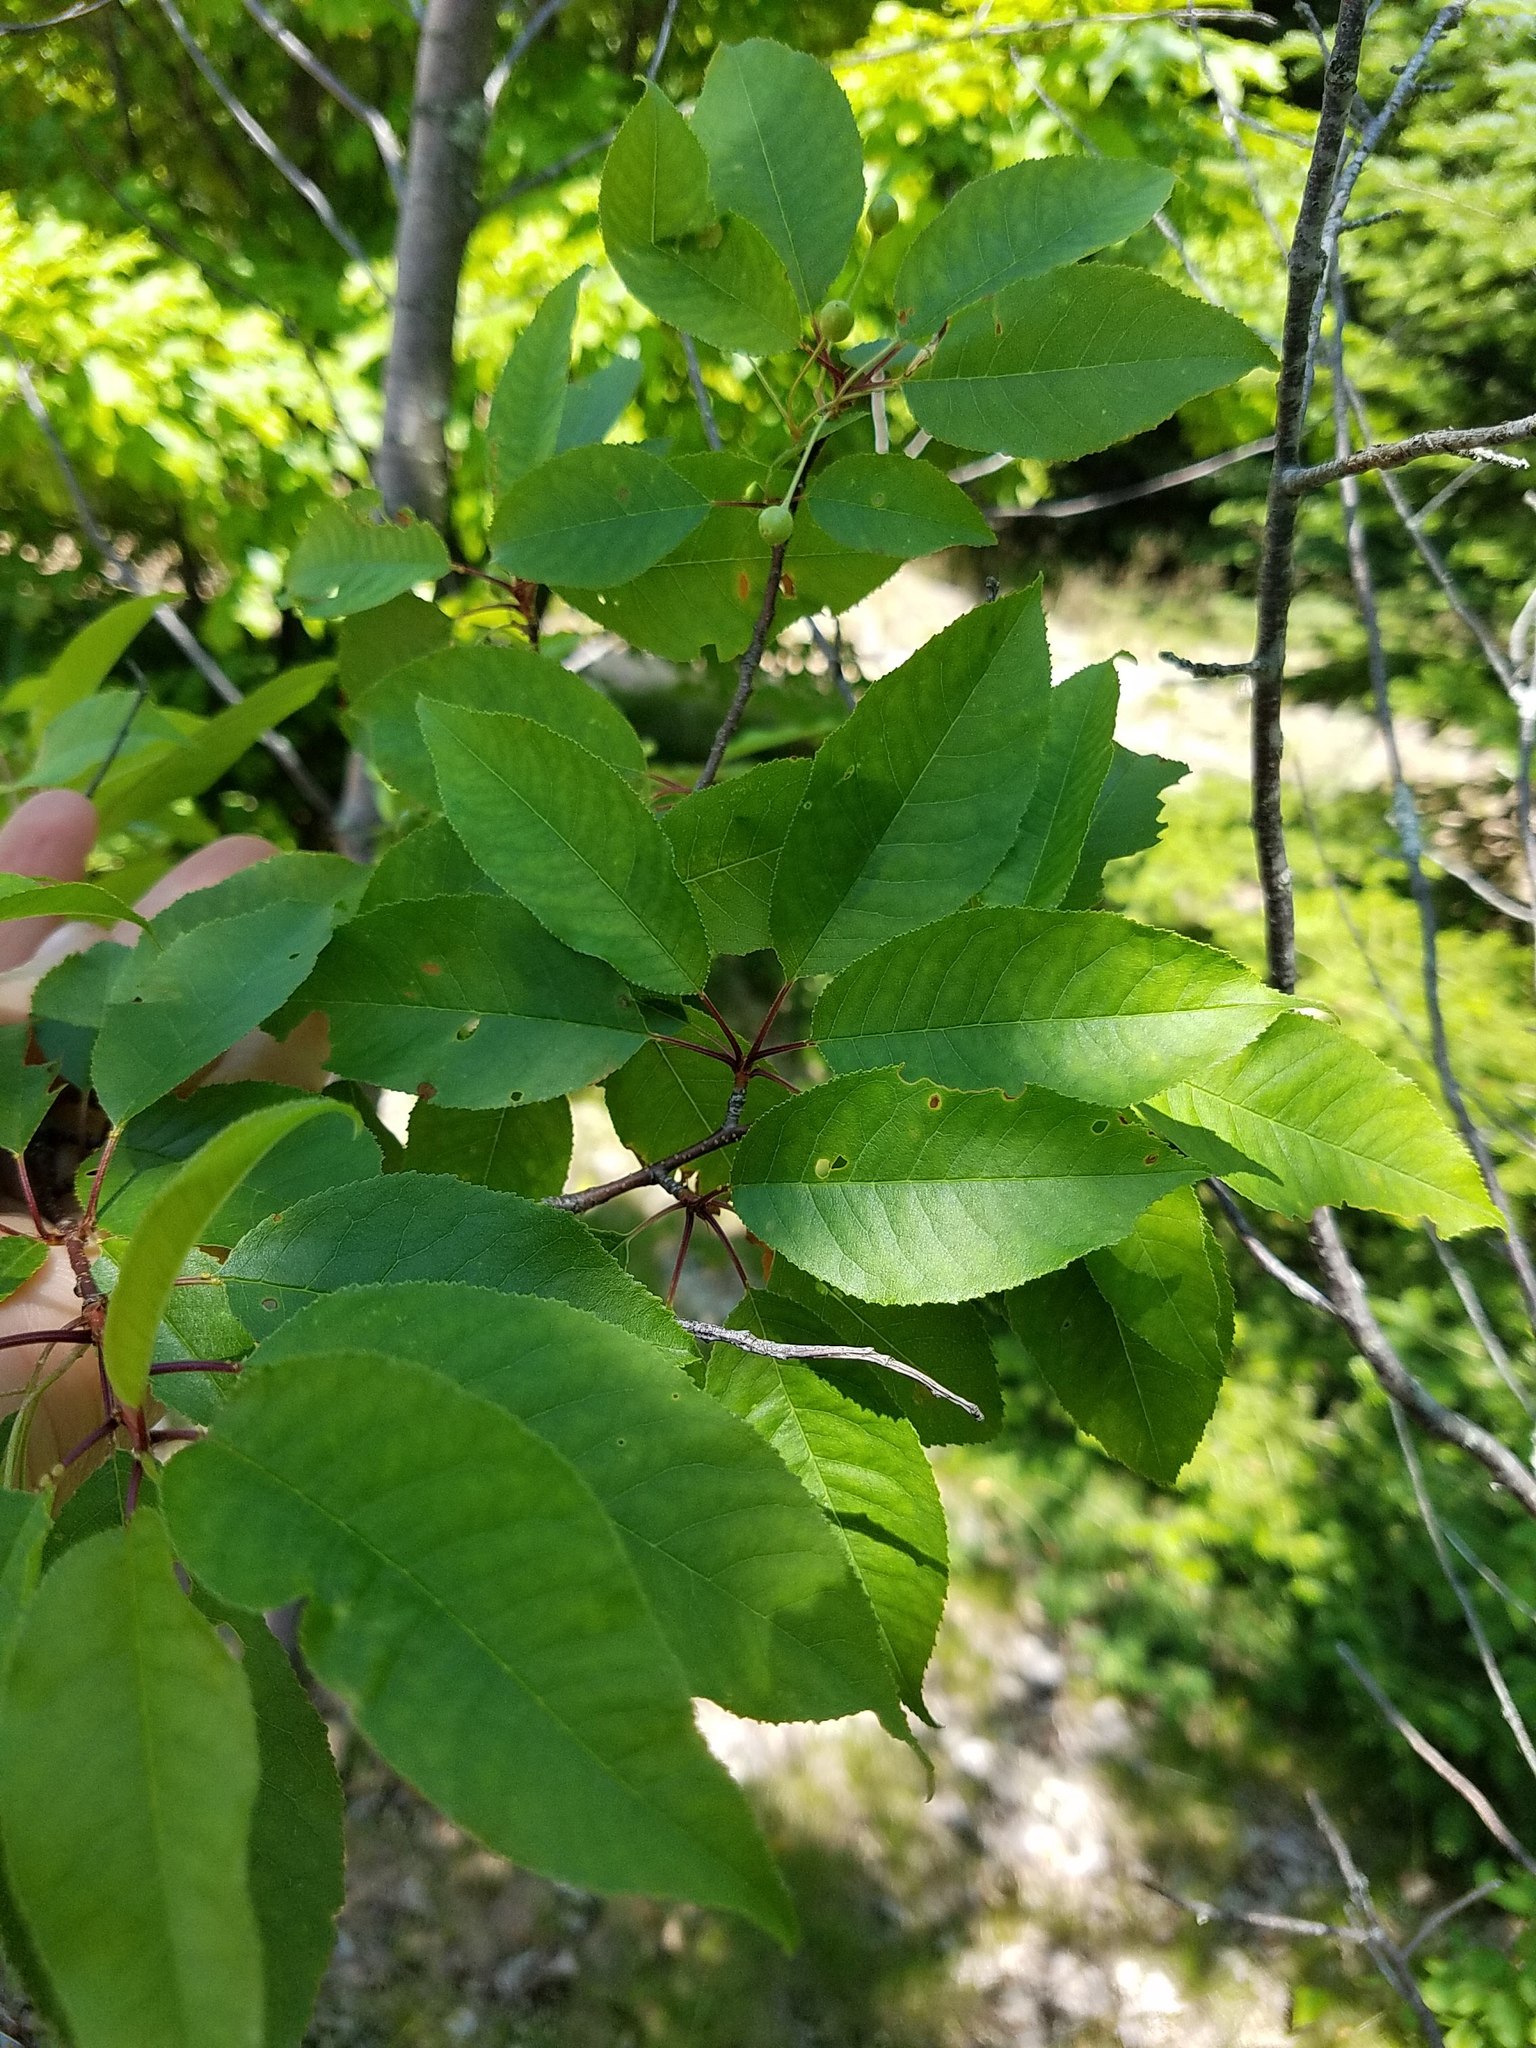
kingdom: Plantae
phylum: Tracheophyta
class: Magnoliopsida
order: Rosales
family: Rosaceae
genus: Prunus
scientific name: Prunus pensylvanica
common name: Pin cherry
